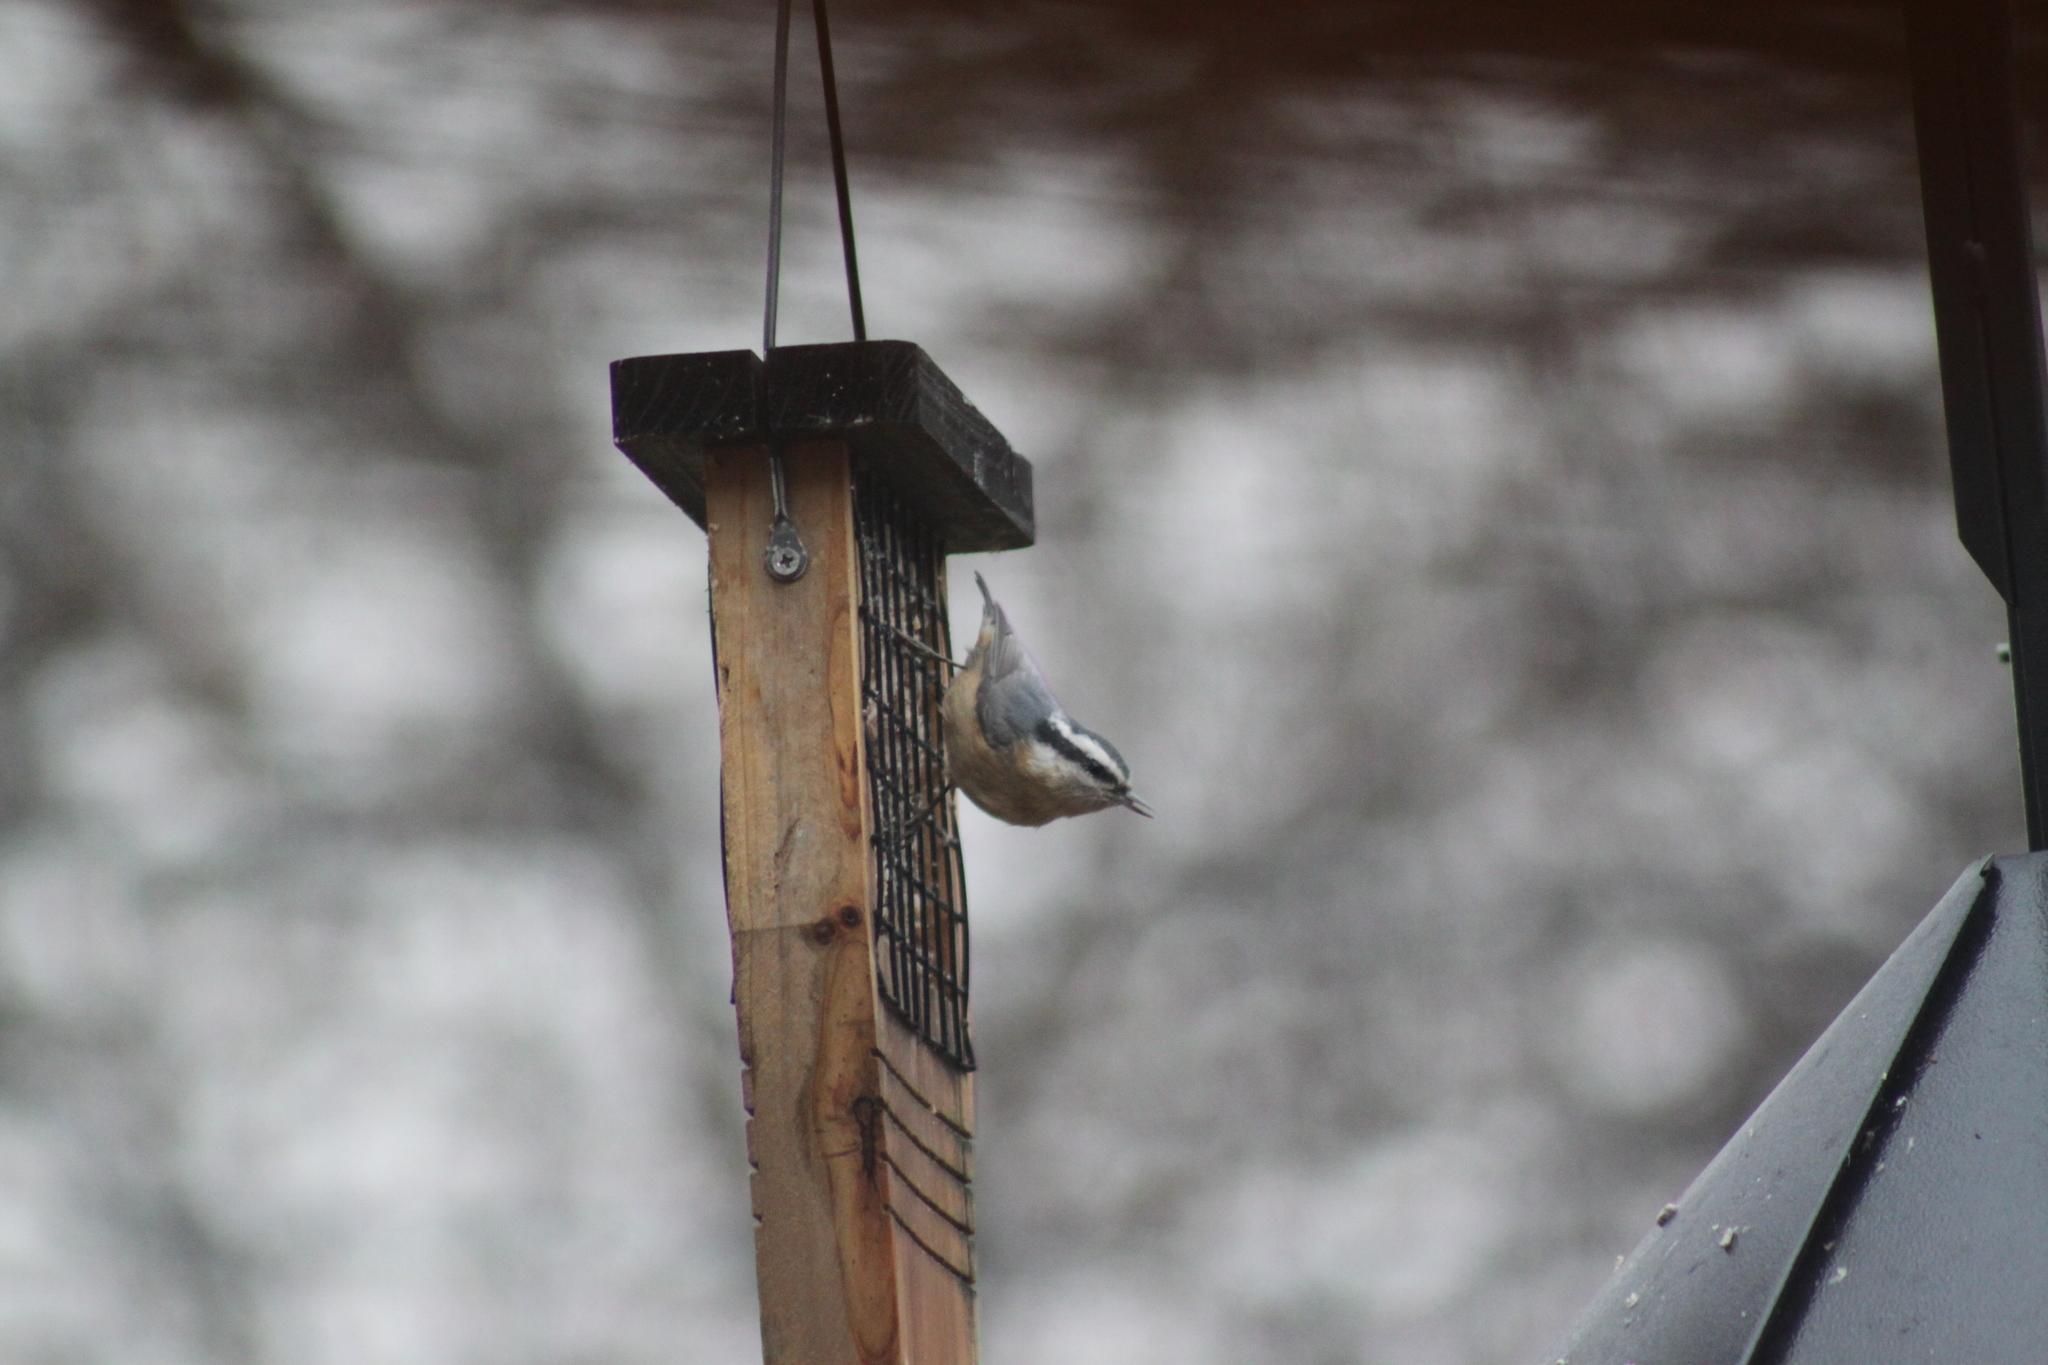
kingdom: Animalia
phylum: Chordata
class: Aves
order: Passeriformes
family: Sittidae
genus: Sitta
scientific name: Sitta canadensis
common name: Red-breasted nuthatch
